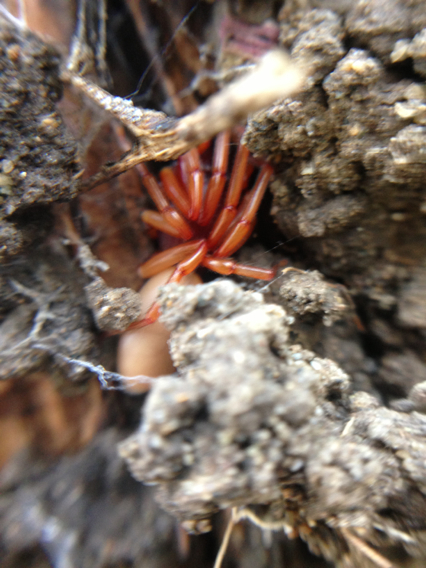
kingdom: Animalia
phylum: Arthropoda
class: Arachnida
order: Araneae
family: Dysderidae
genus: Dysdera
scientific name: Dysdera crocata
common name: Woodlouse spider
